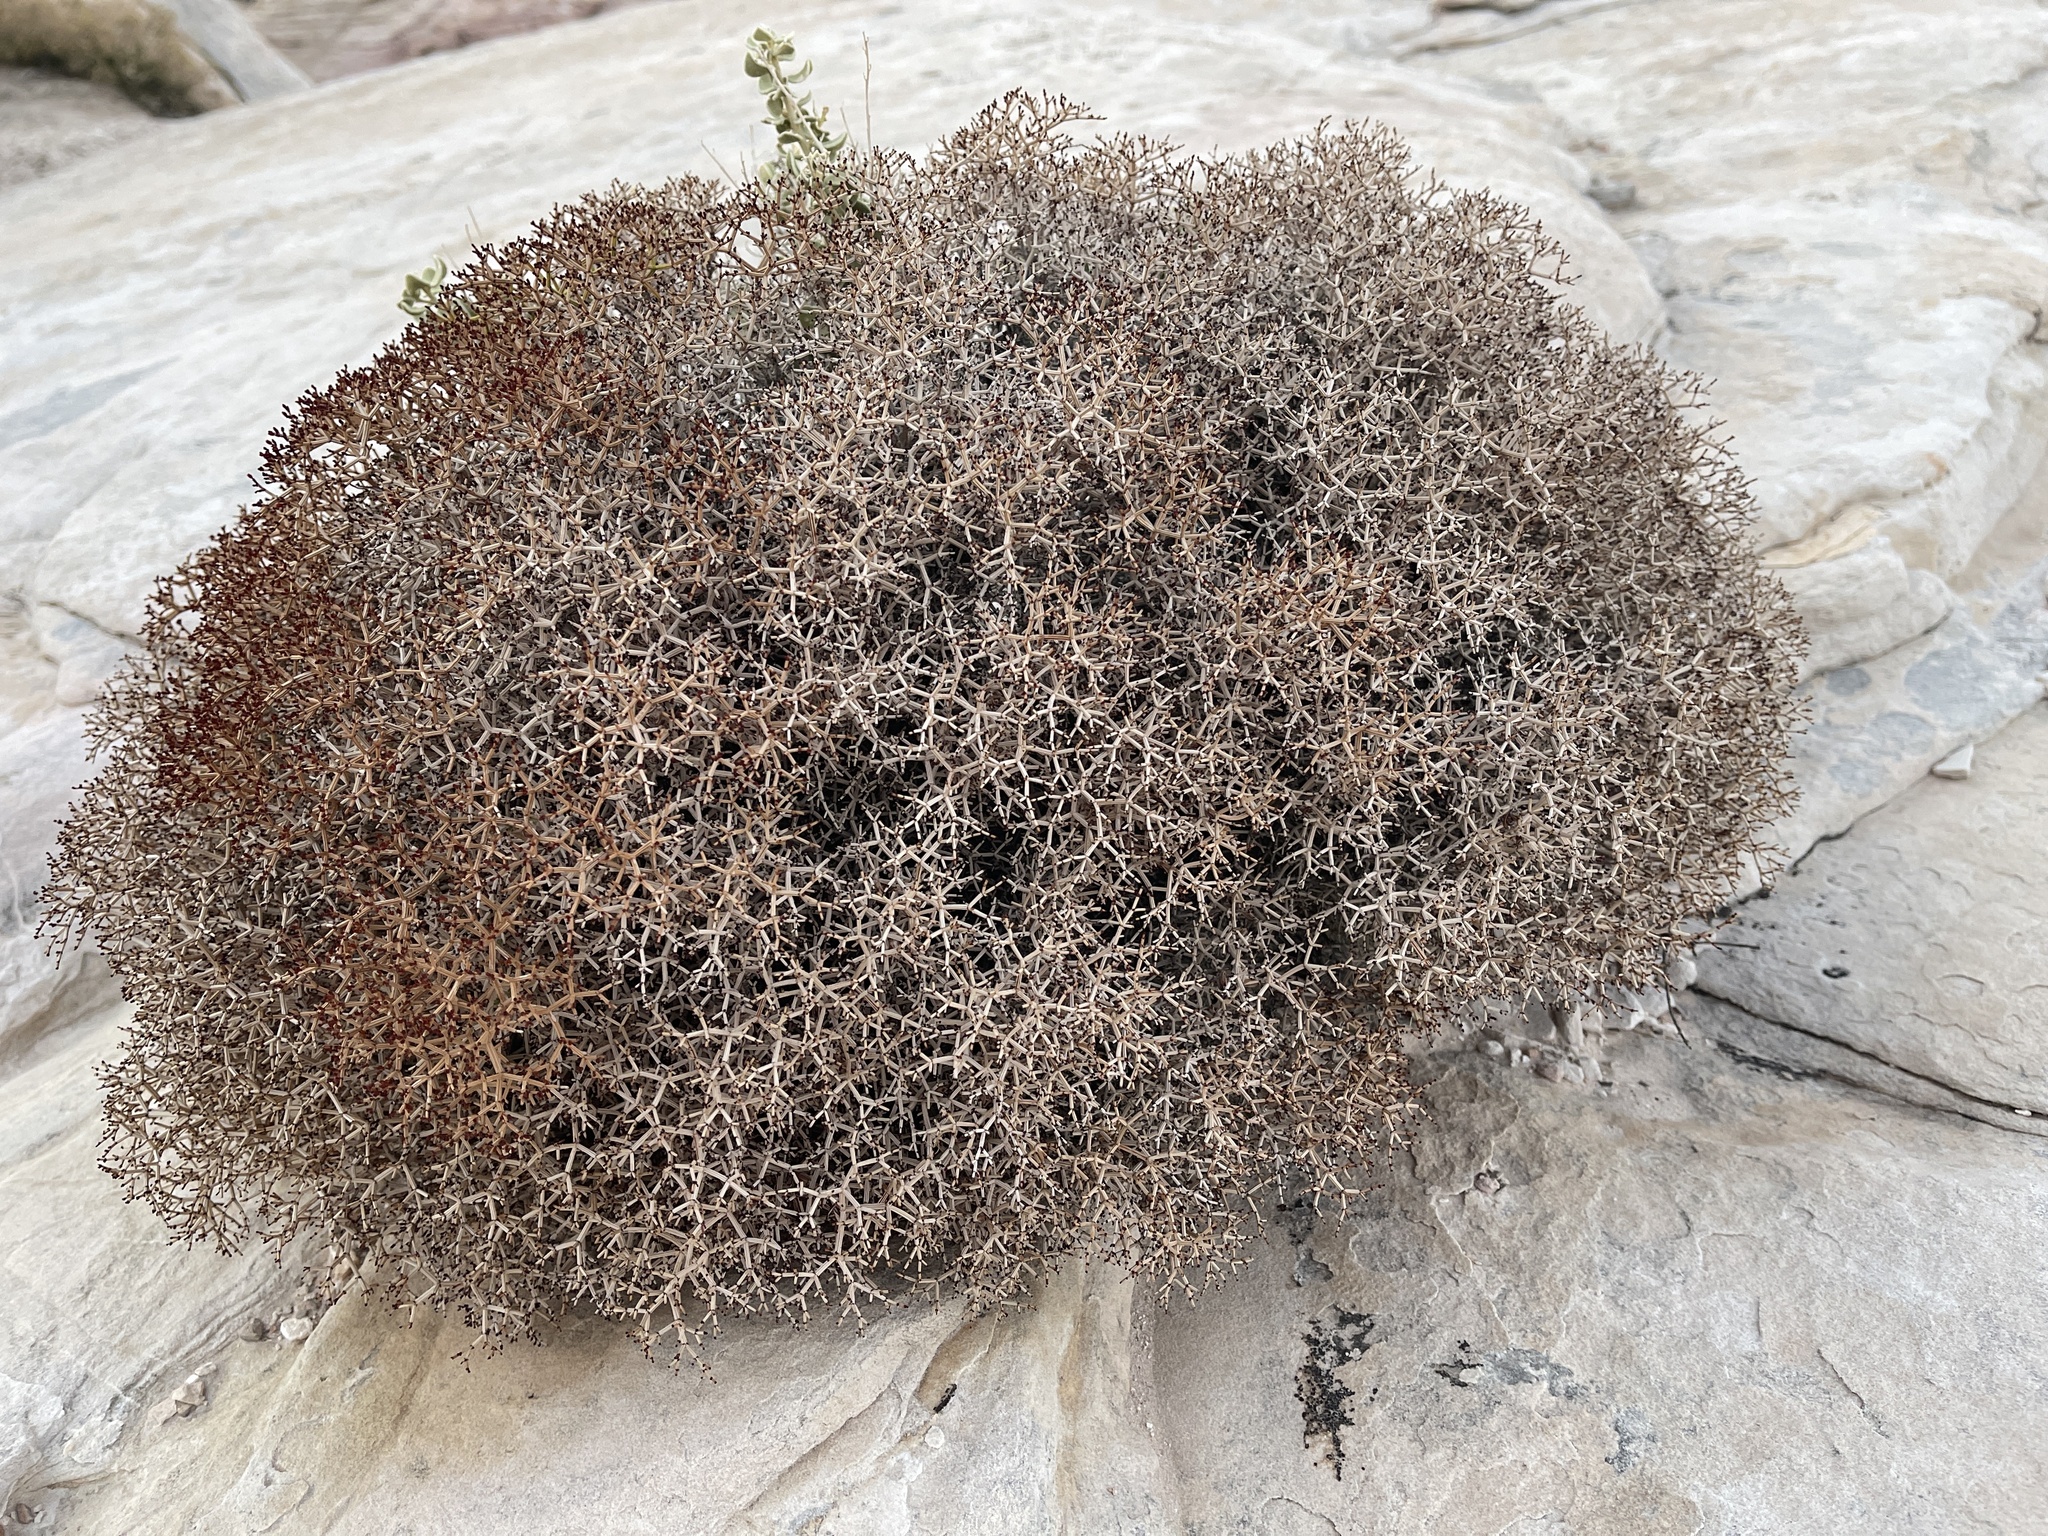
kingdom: Plantae
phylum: Tracheophyta
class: Magnoliopsida
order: Caryophyllales
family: Polygonaceae
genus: Eriogonum
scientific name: Eriogonum heermannii
